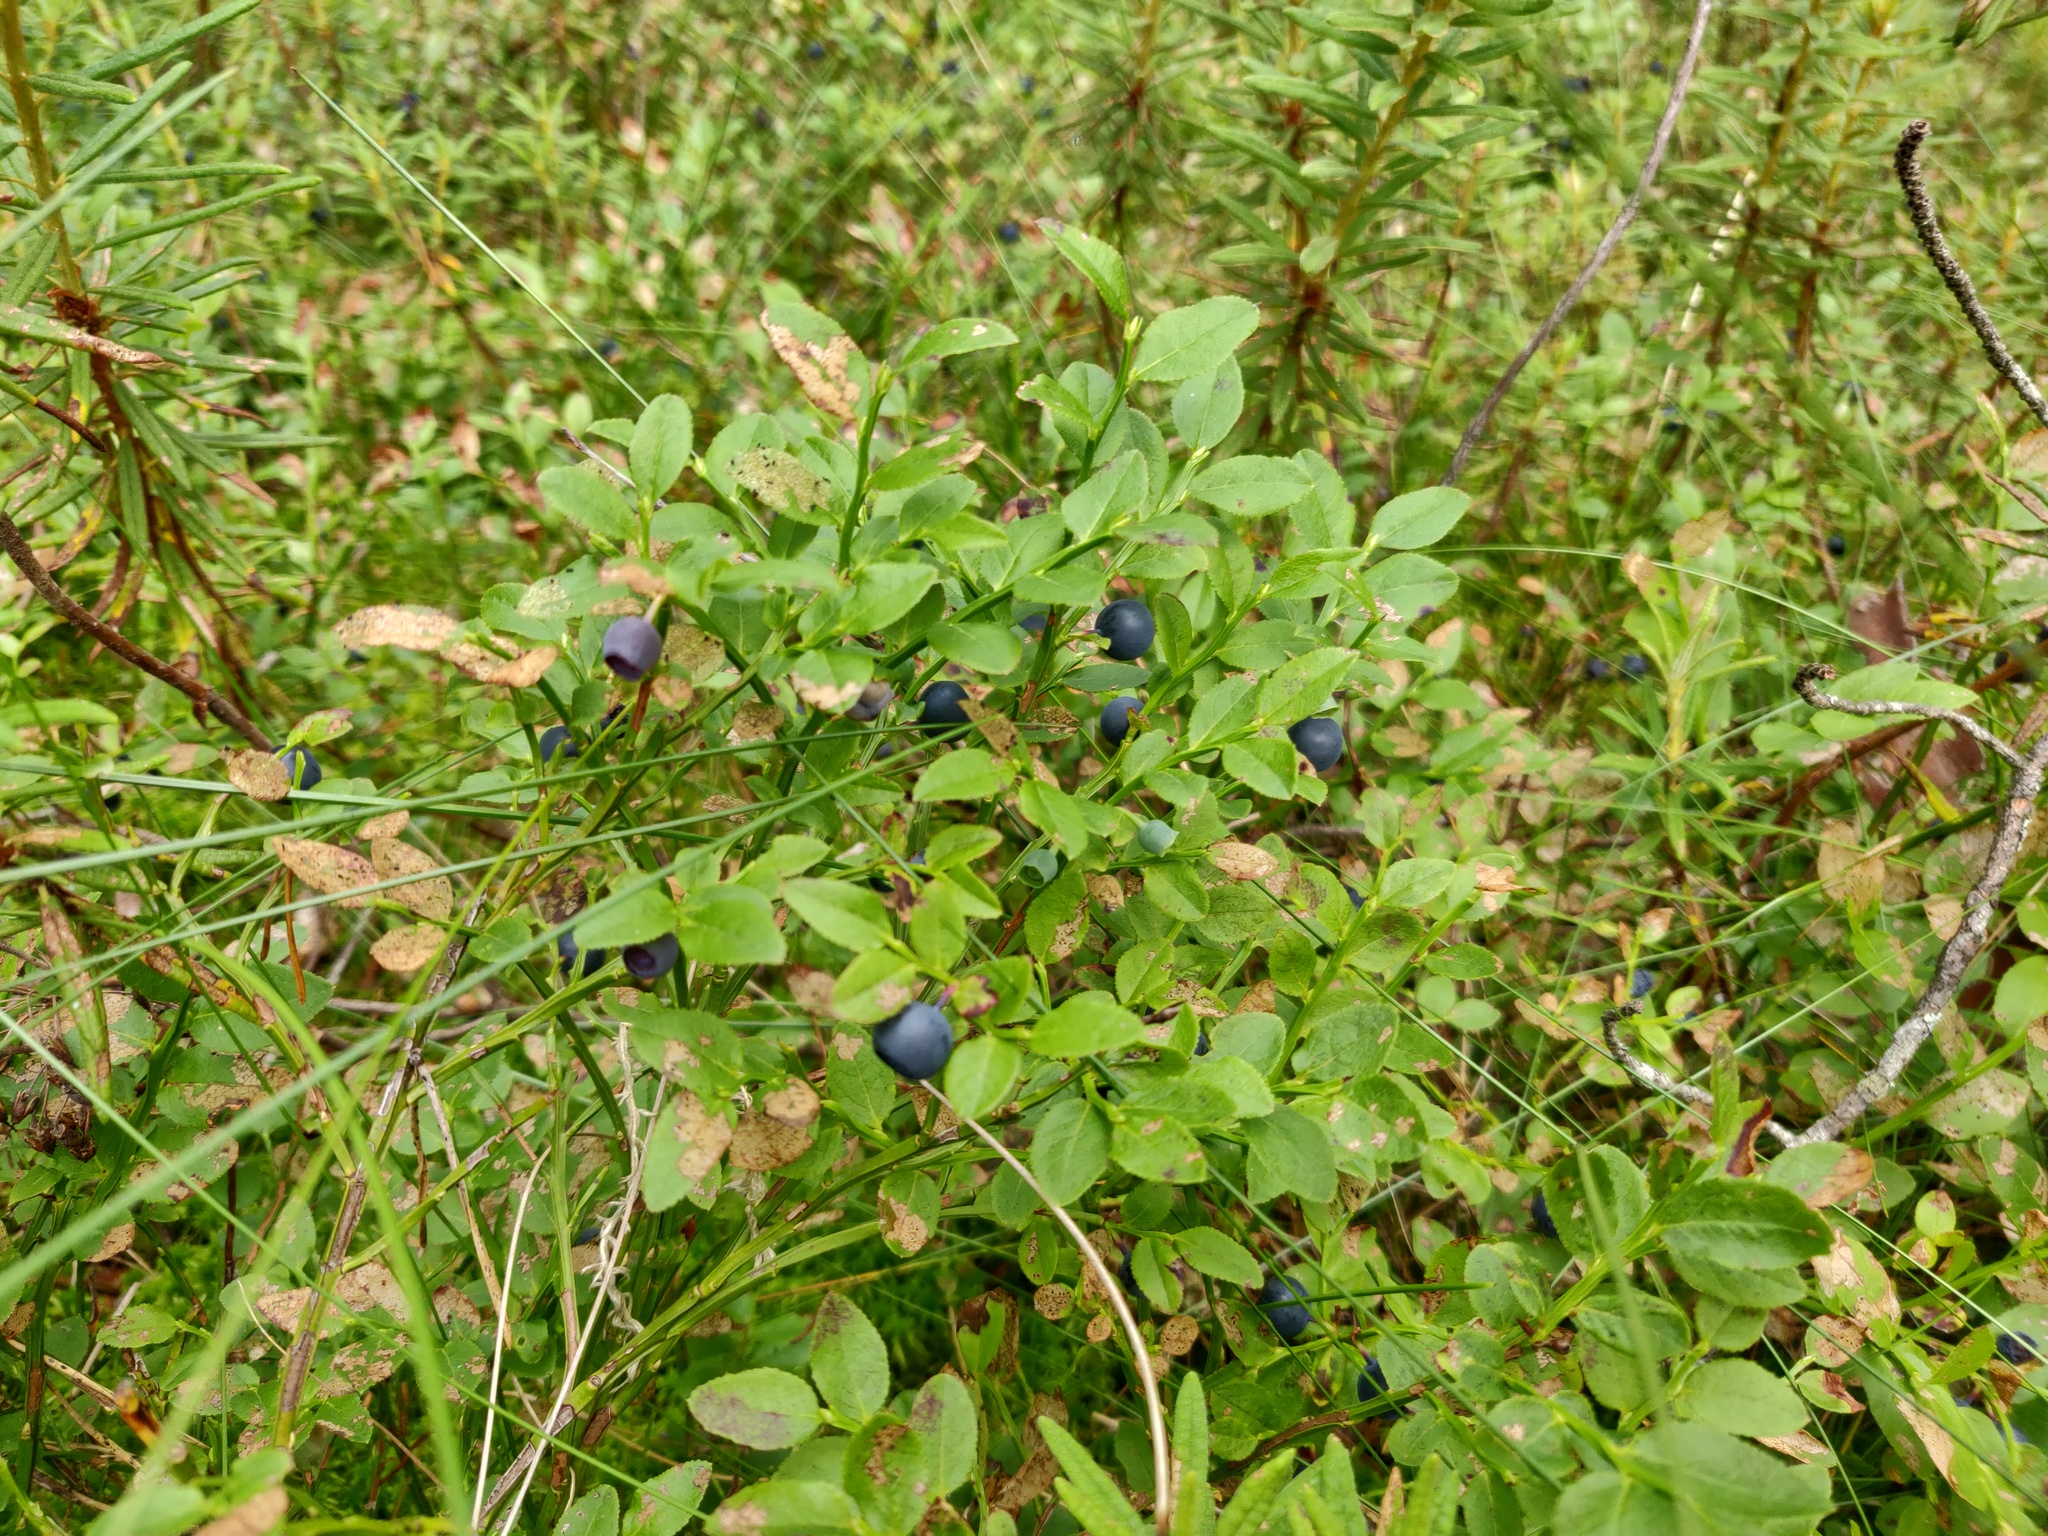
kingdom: Plantae
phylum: Tracheophyta
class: Magnoliopsida
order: Ericales
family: Ericaceae
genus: Vaccinium
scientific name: Vaccinium myrtillus
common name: Bilberry
